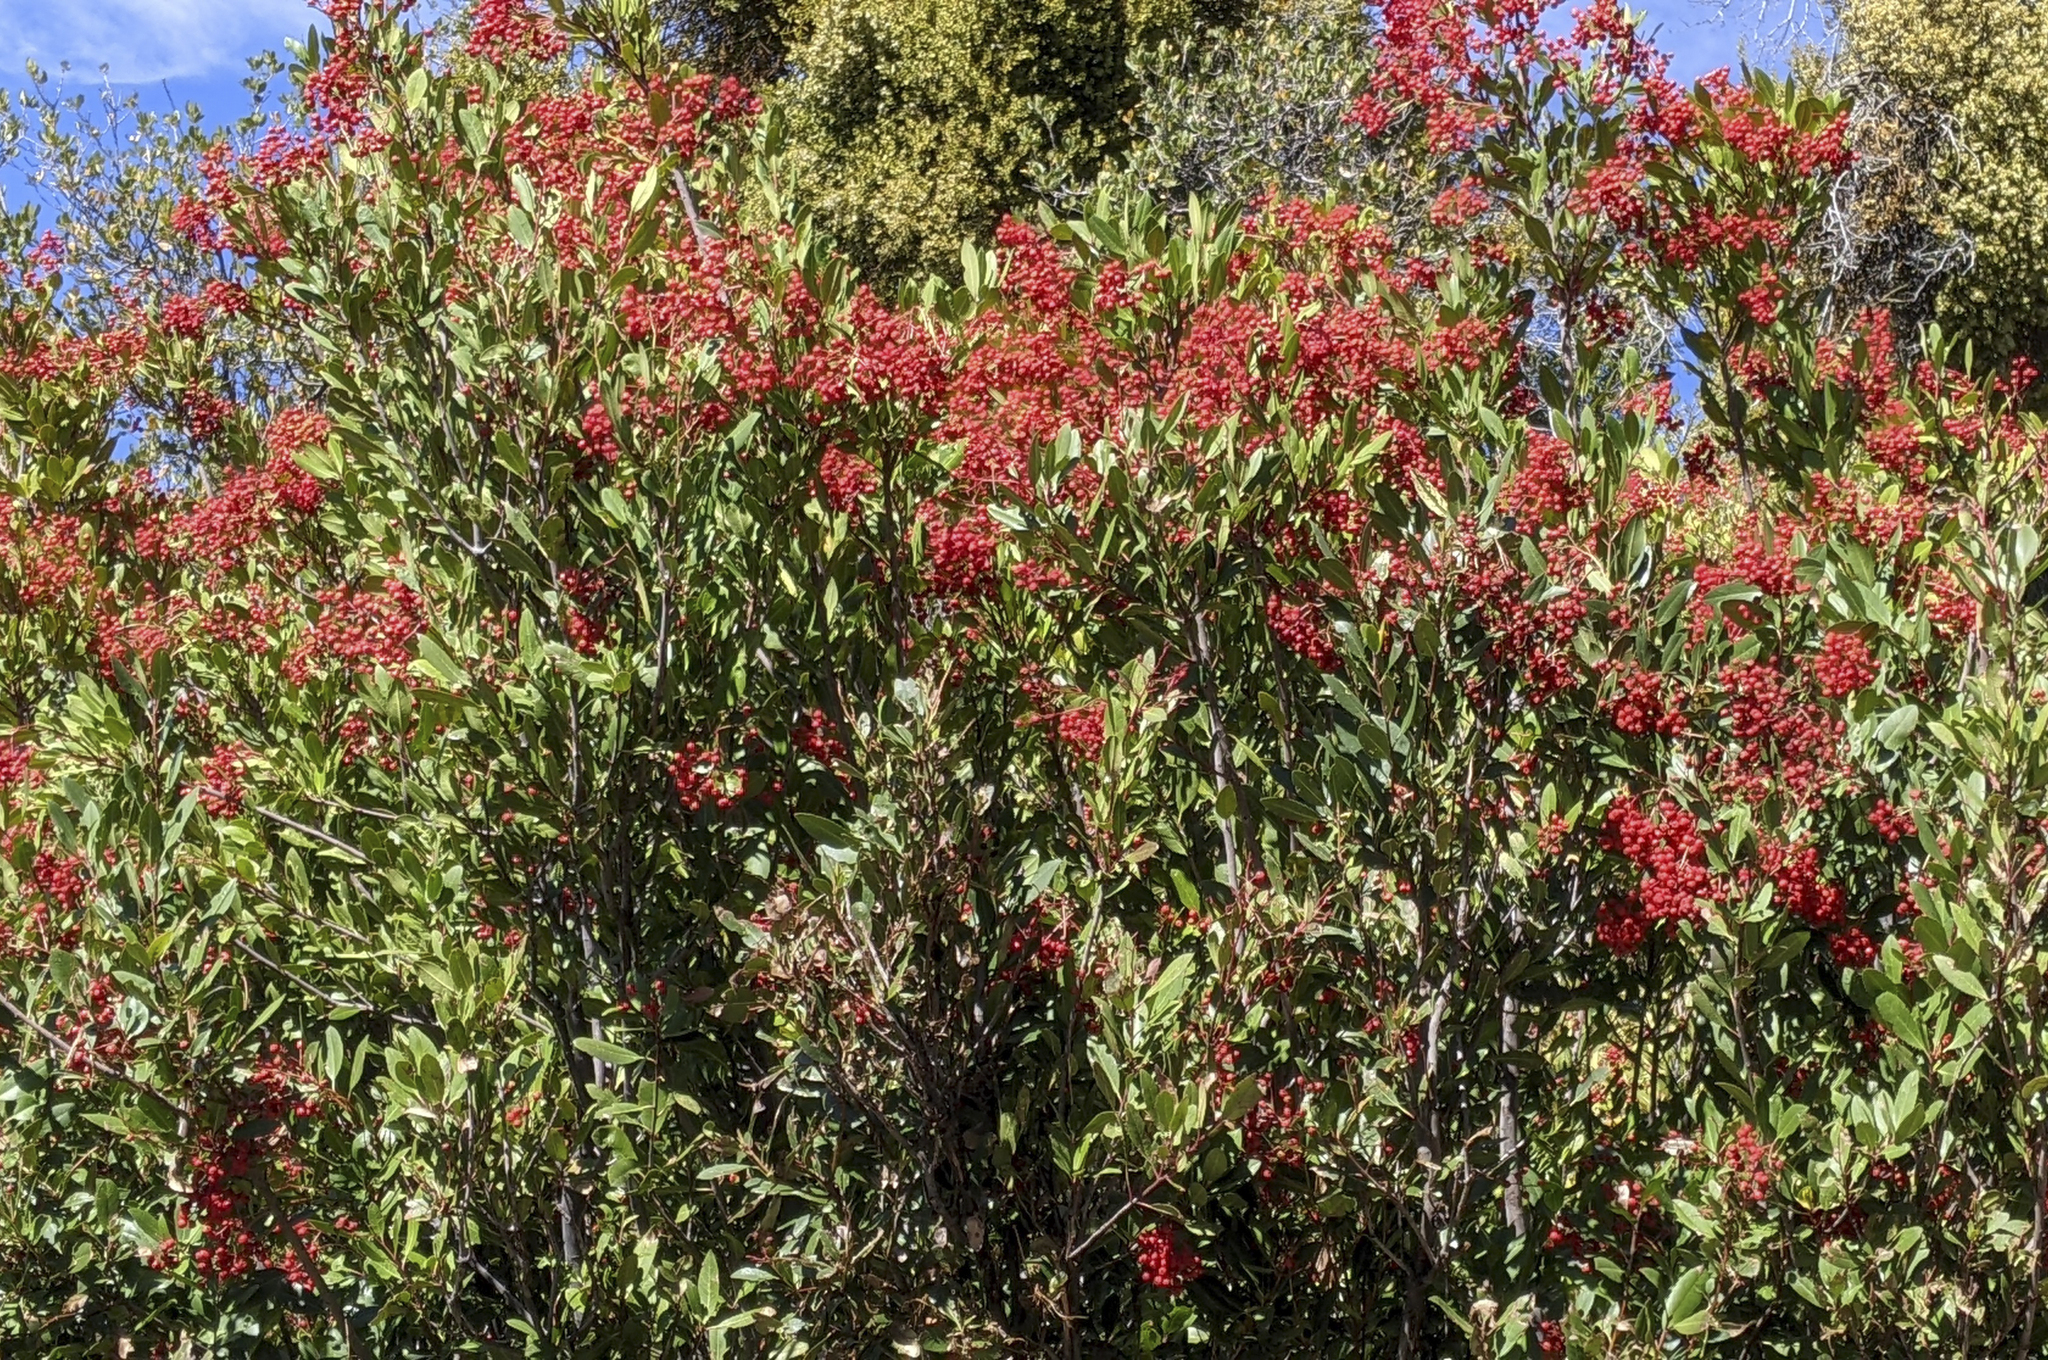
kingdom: Plantae
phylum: Tracheophyta
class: Magnoliopsida
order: Rosales
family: Rosaceae
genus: Heteromeles
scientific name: Heteromeles arbutifolia
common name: California-holly
